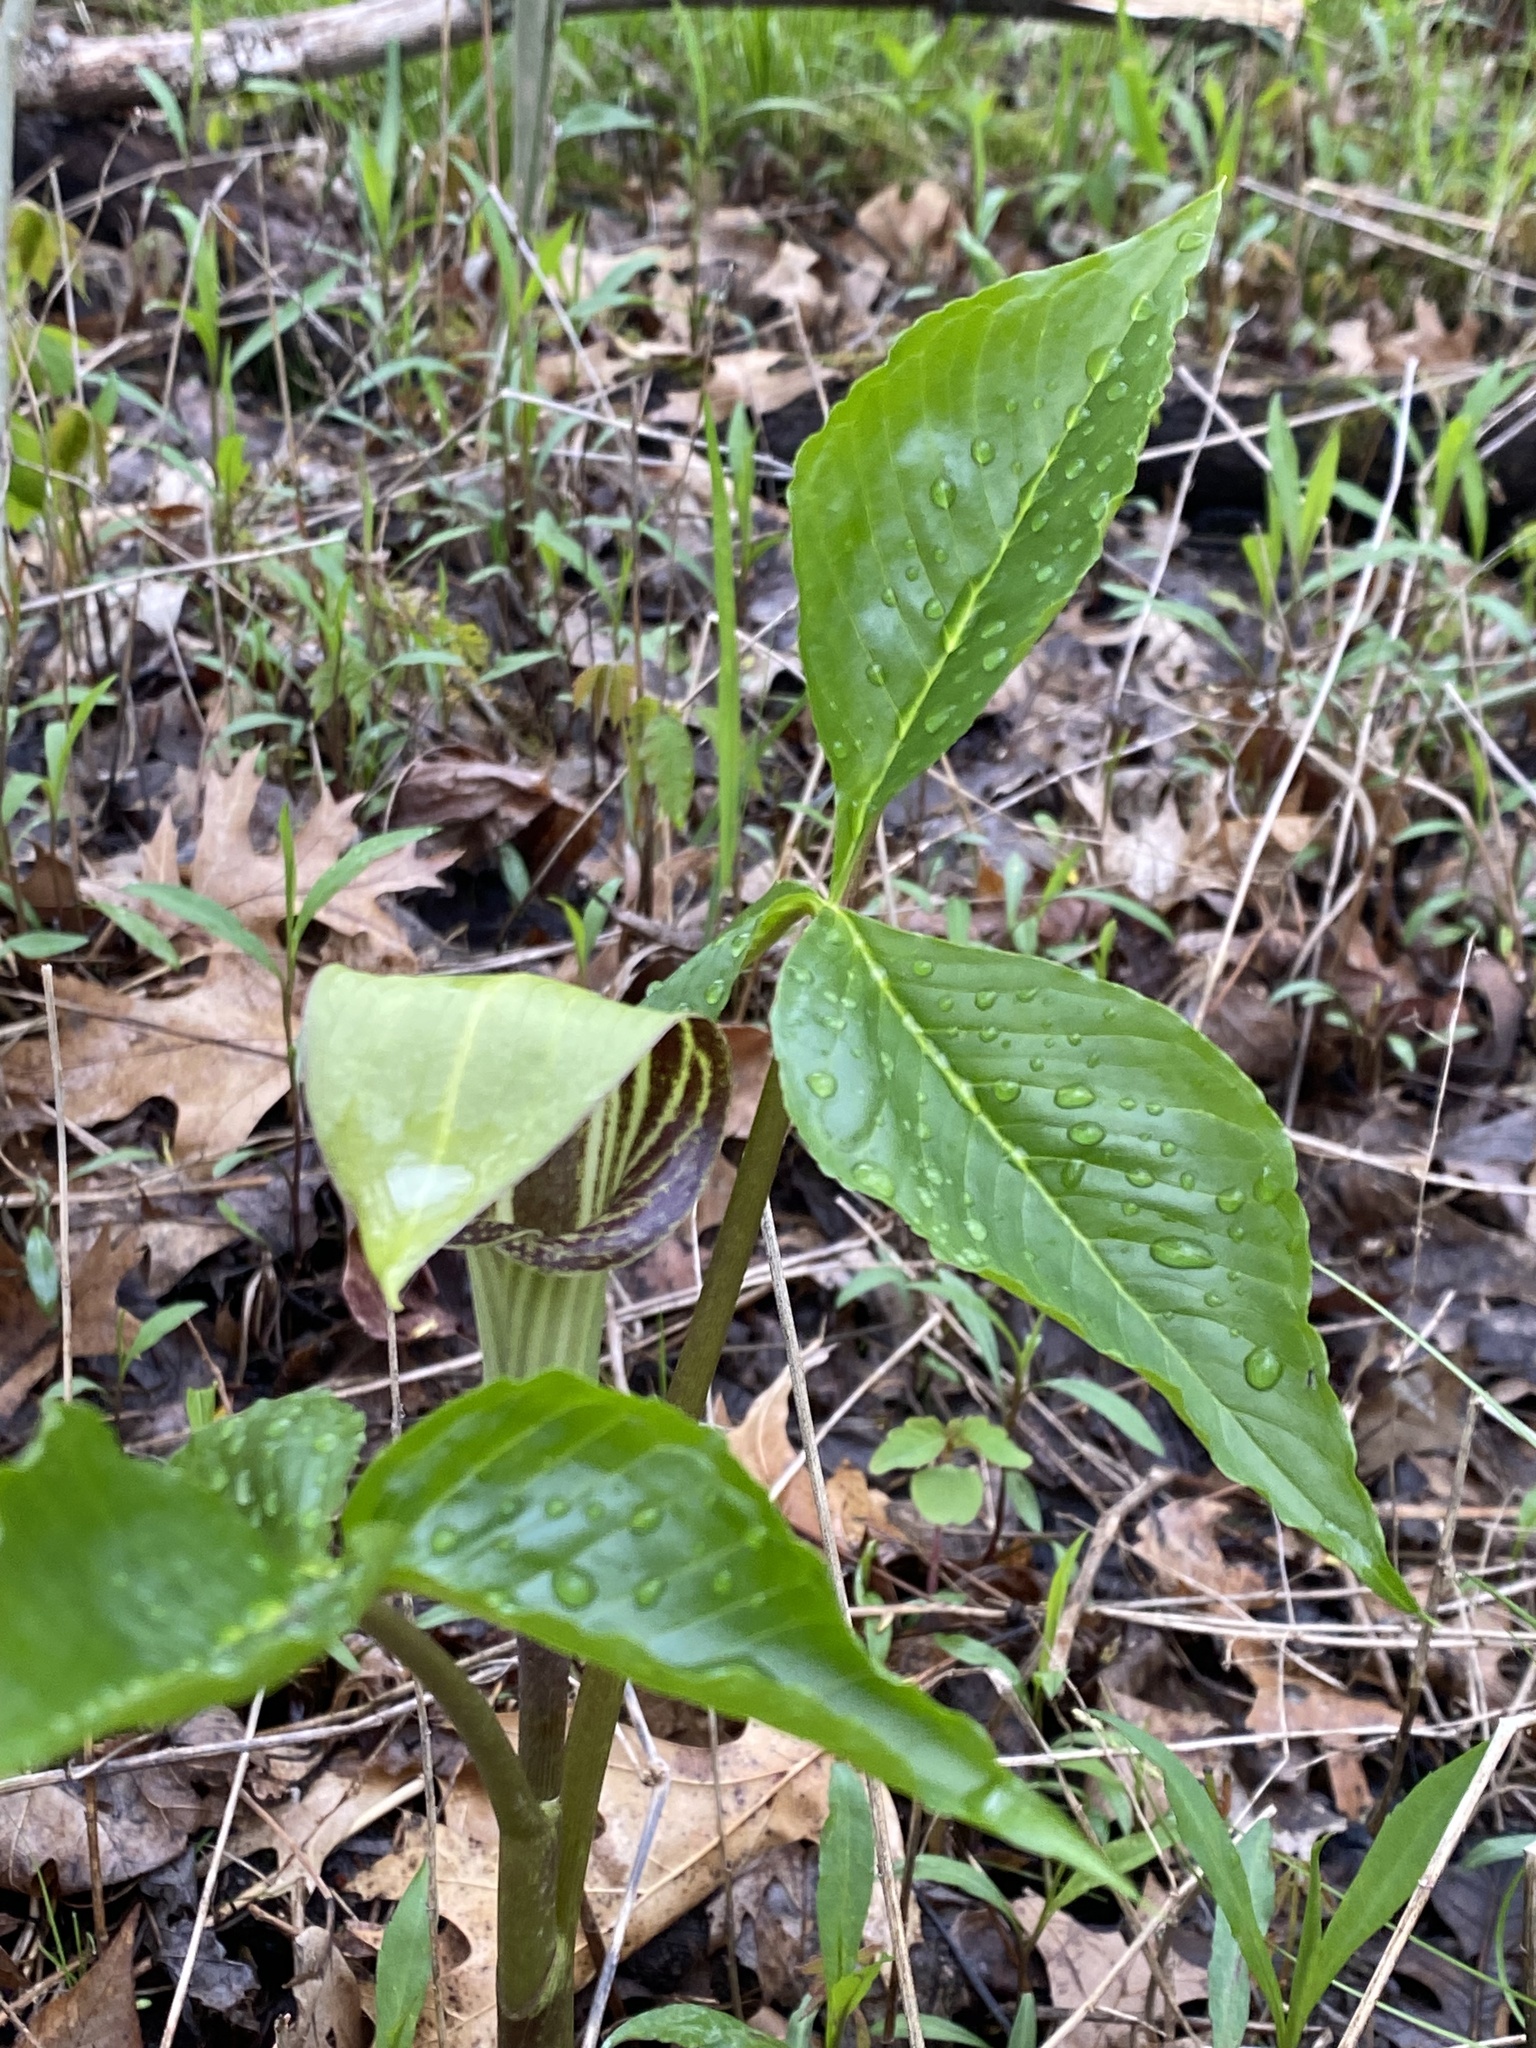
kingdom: Plantae
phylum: Tracheophyta
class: Liliopsida
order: Alismatales
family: Araceae
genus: Arisaema
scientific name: Arisaema triphyllum
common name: Jack-in-the-pulpit
